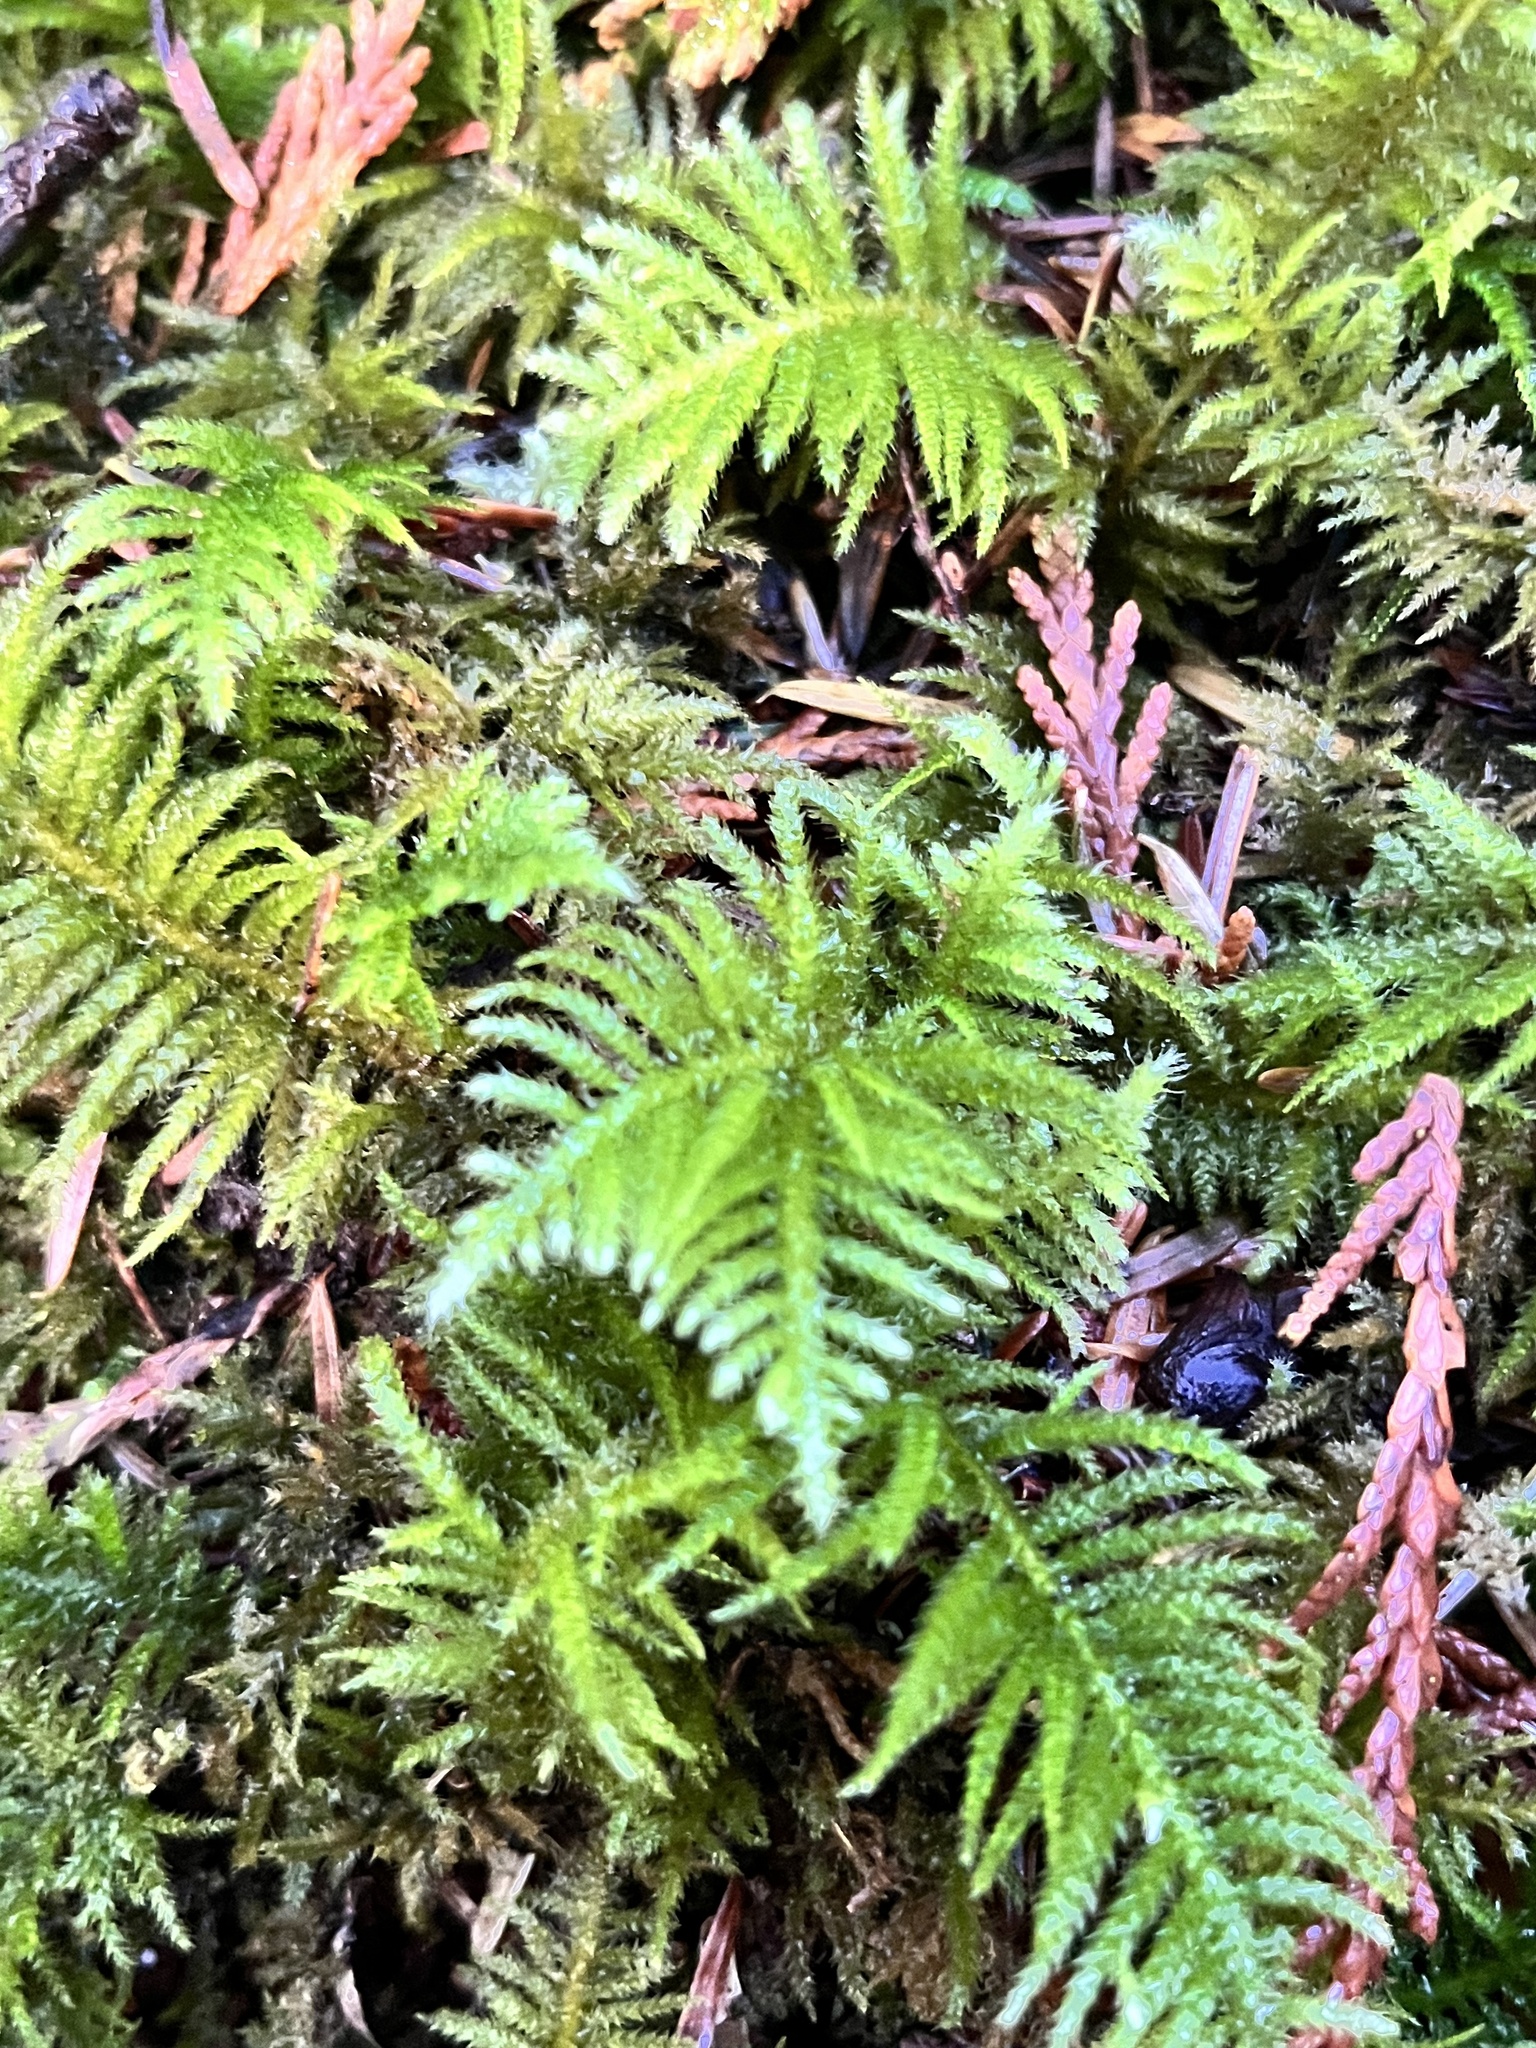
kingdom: Plantae
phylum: Bryophyta
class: Bryopsida
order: Hypnales
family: Brachytheciaceae
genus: Kindbergia
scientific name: Kindbergia oregana
